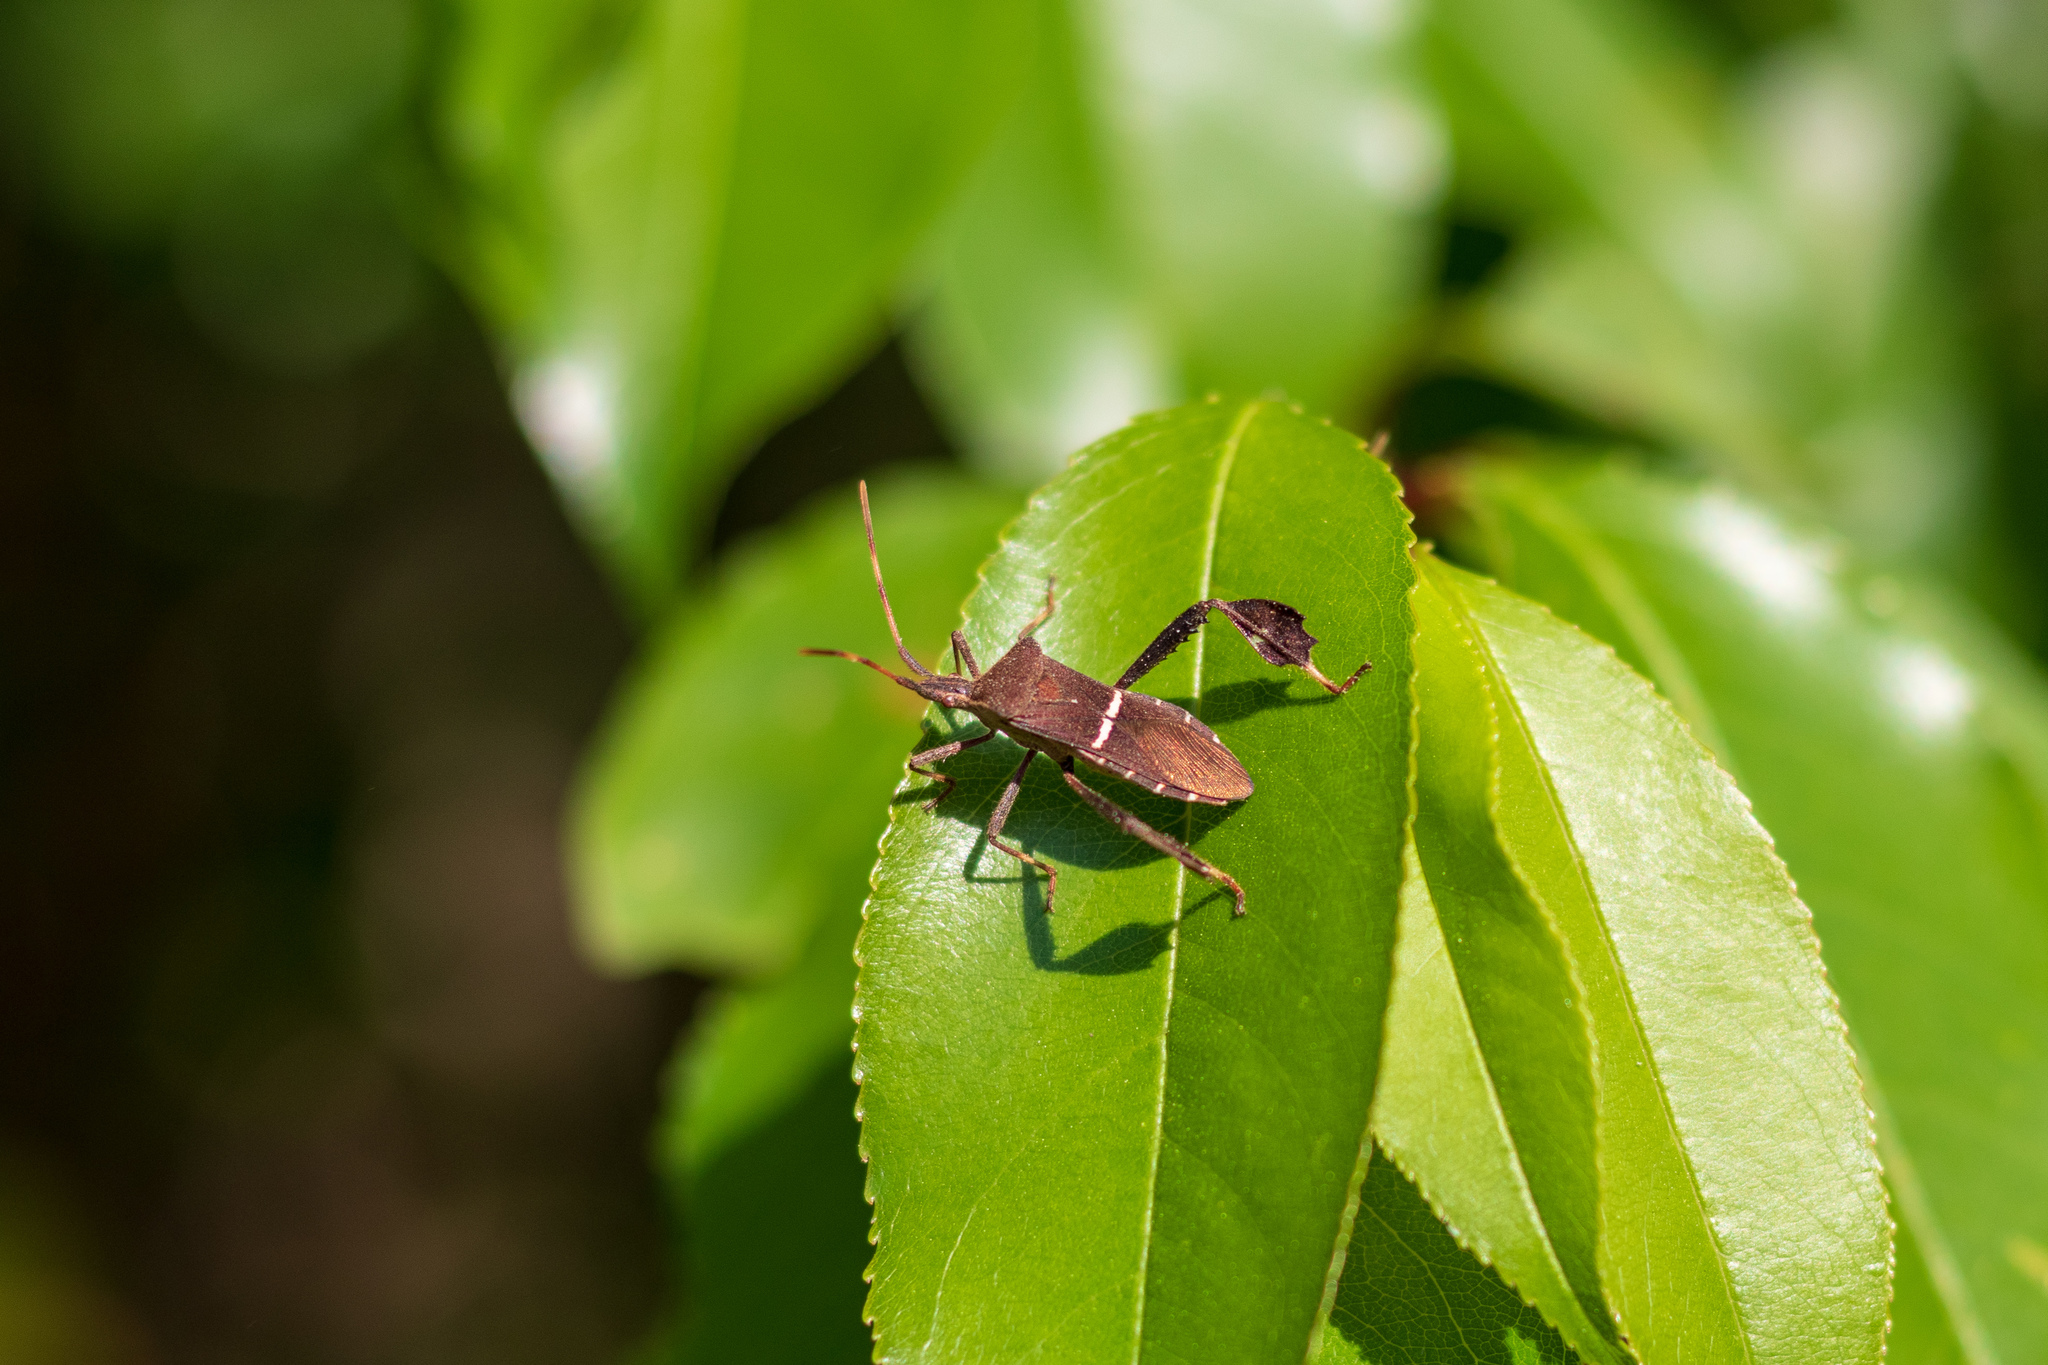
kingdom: Animalia
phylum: Arthropoda
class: Insecta
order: Hemiptera
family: Coreidae
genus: Leptoglossus
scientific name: Leptoglossus phyllopus
